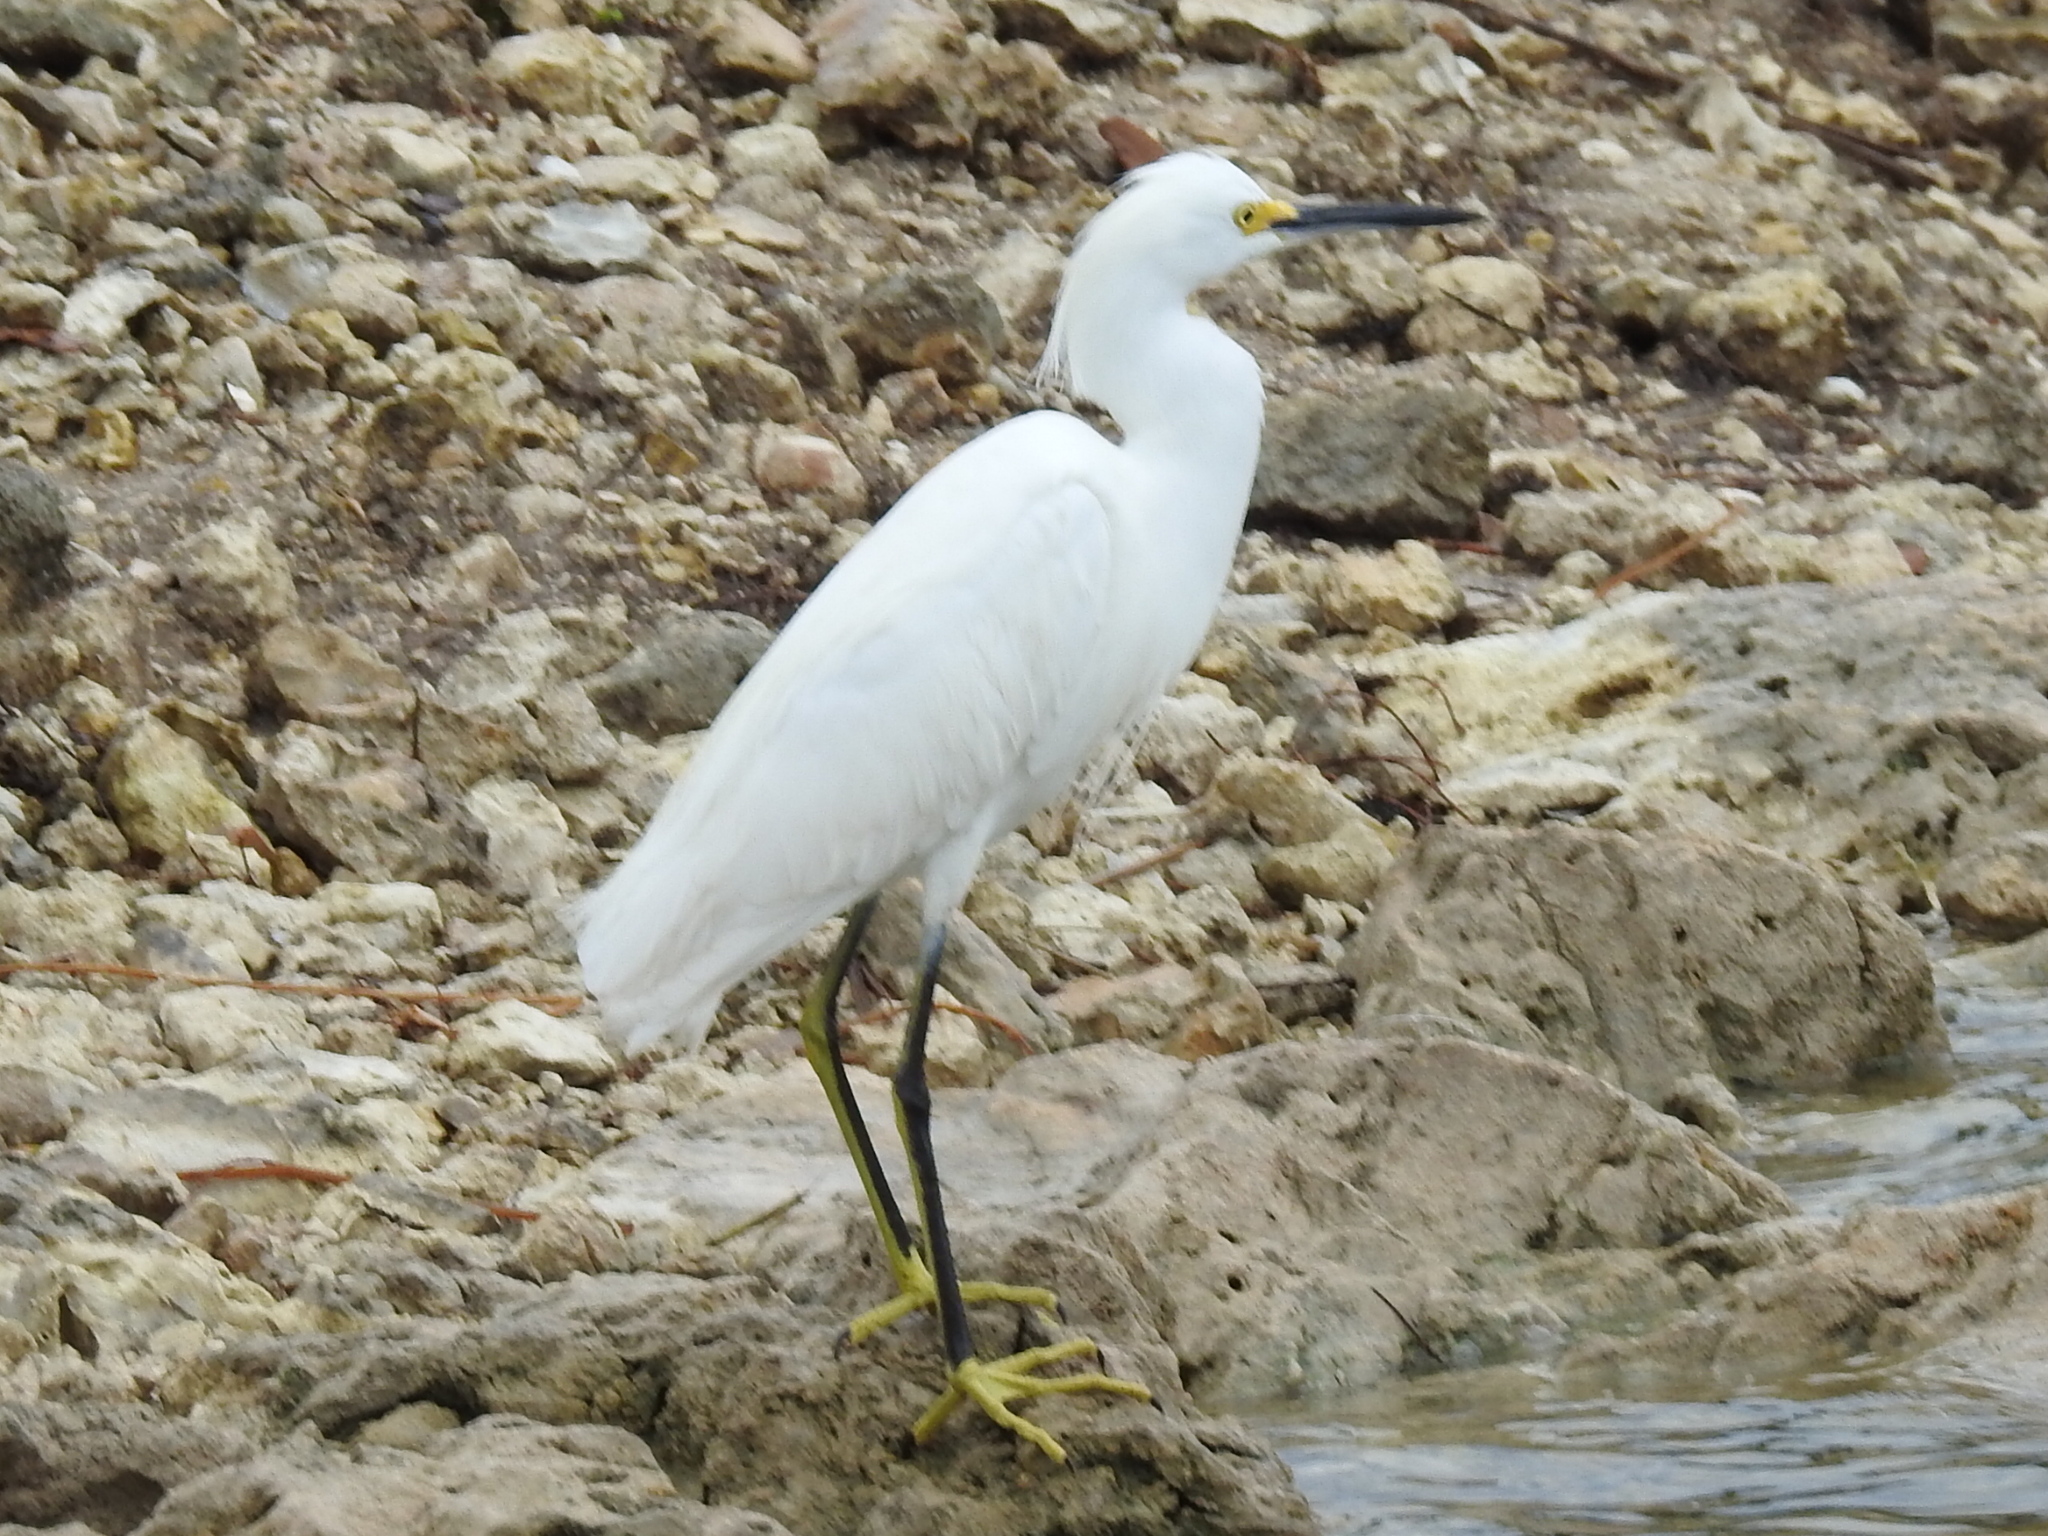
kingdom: Animalia
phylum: Chordata
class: Aves
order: Pelecaniformes
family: Ardeidae
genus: Egretta
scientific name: Egretta thula
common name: Snowy egret
